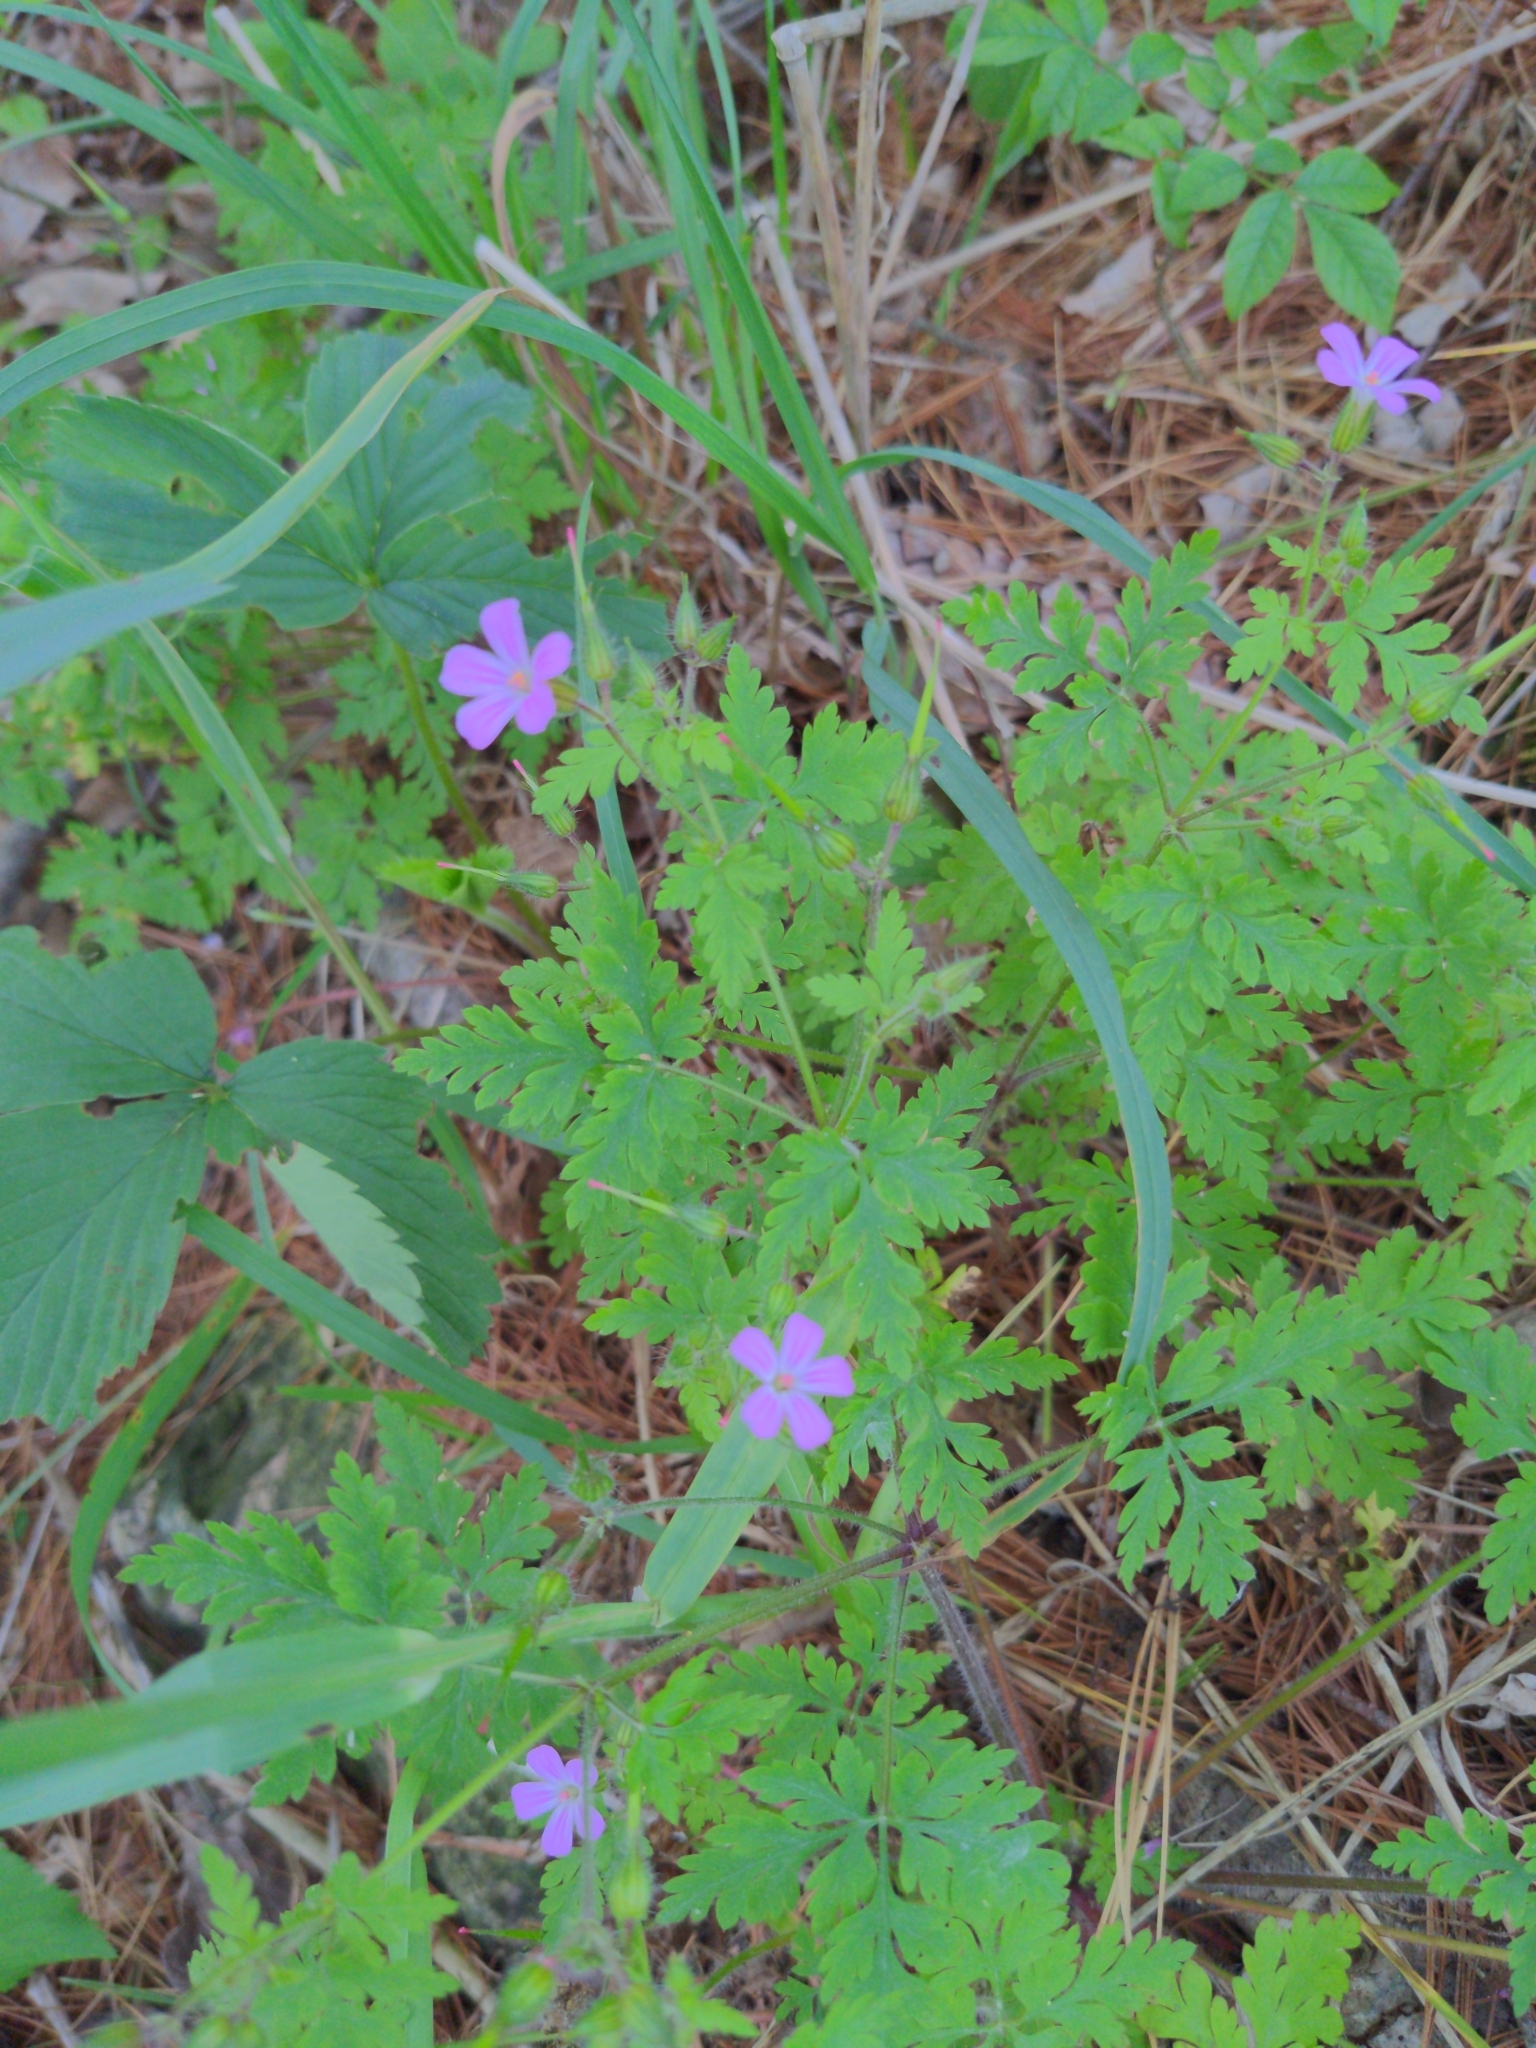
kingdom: Plantae
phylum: Tracheophyta
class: Magnoliopsida
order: Geraniales
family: Geraniaceae
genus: Geranium
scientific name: Geranium robertianum
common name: Herb-robert
